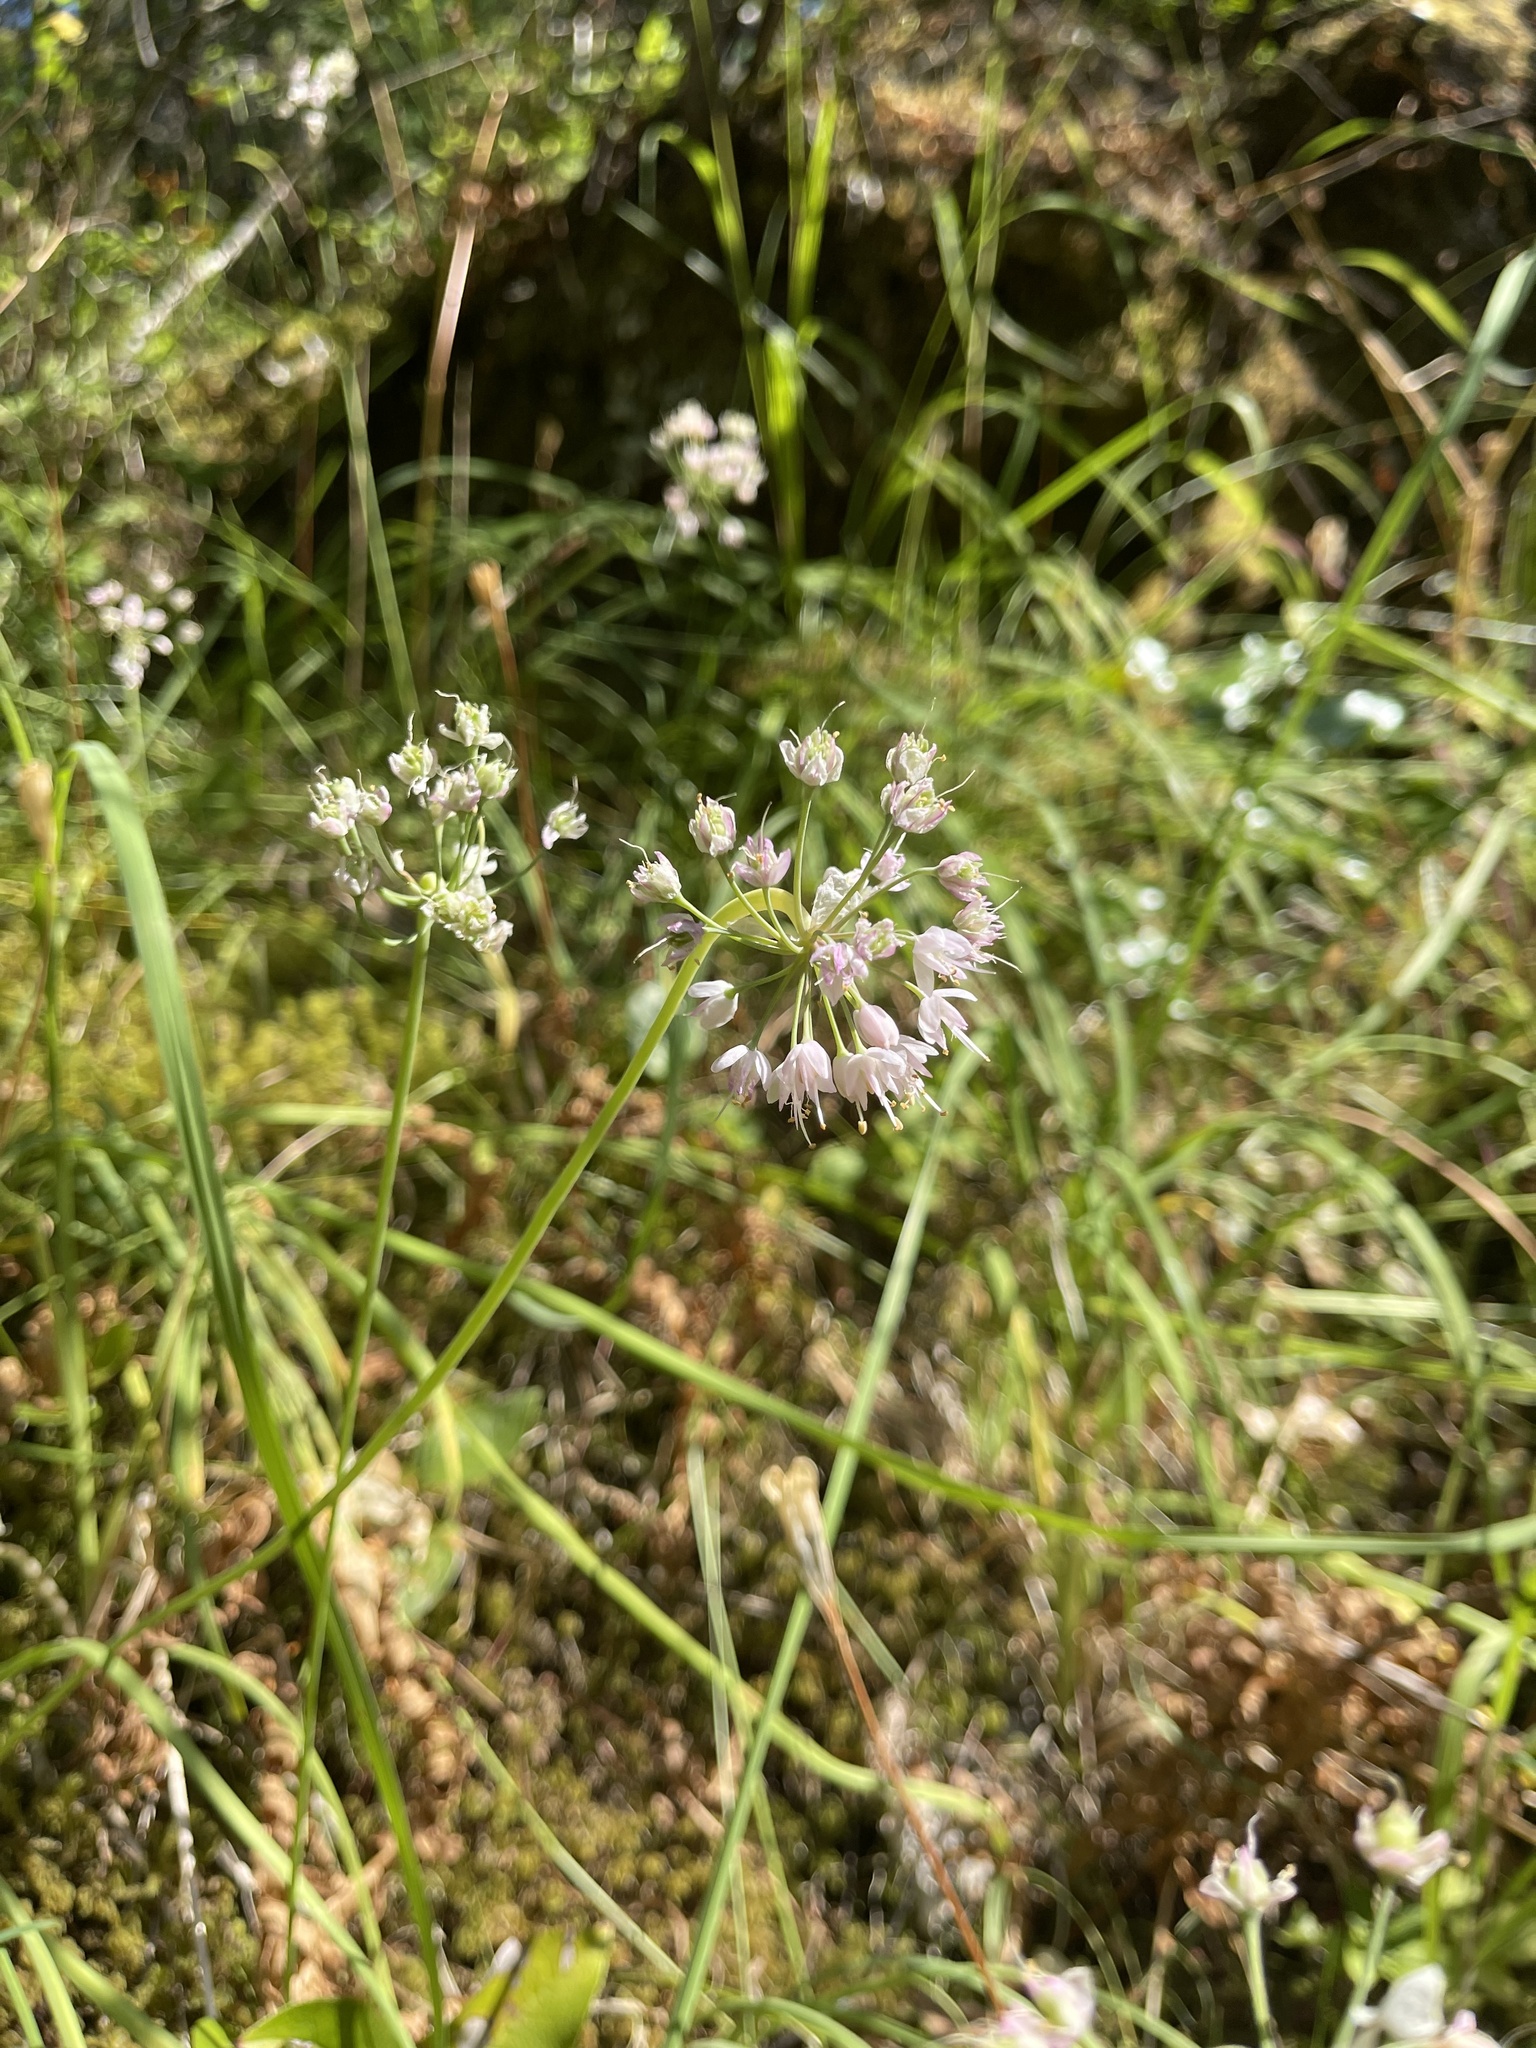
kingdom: Plantae
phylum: Tracheophyta
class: Liliopsida
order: Asparagales
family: Amaryllidaceae
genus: Allium
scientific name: Allium cernuum
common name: Nodding onion
